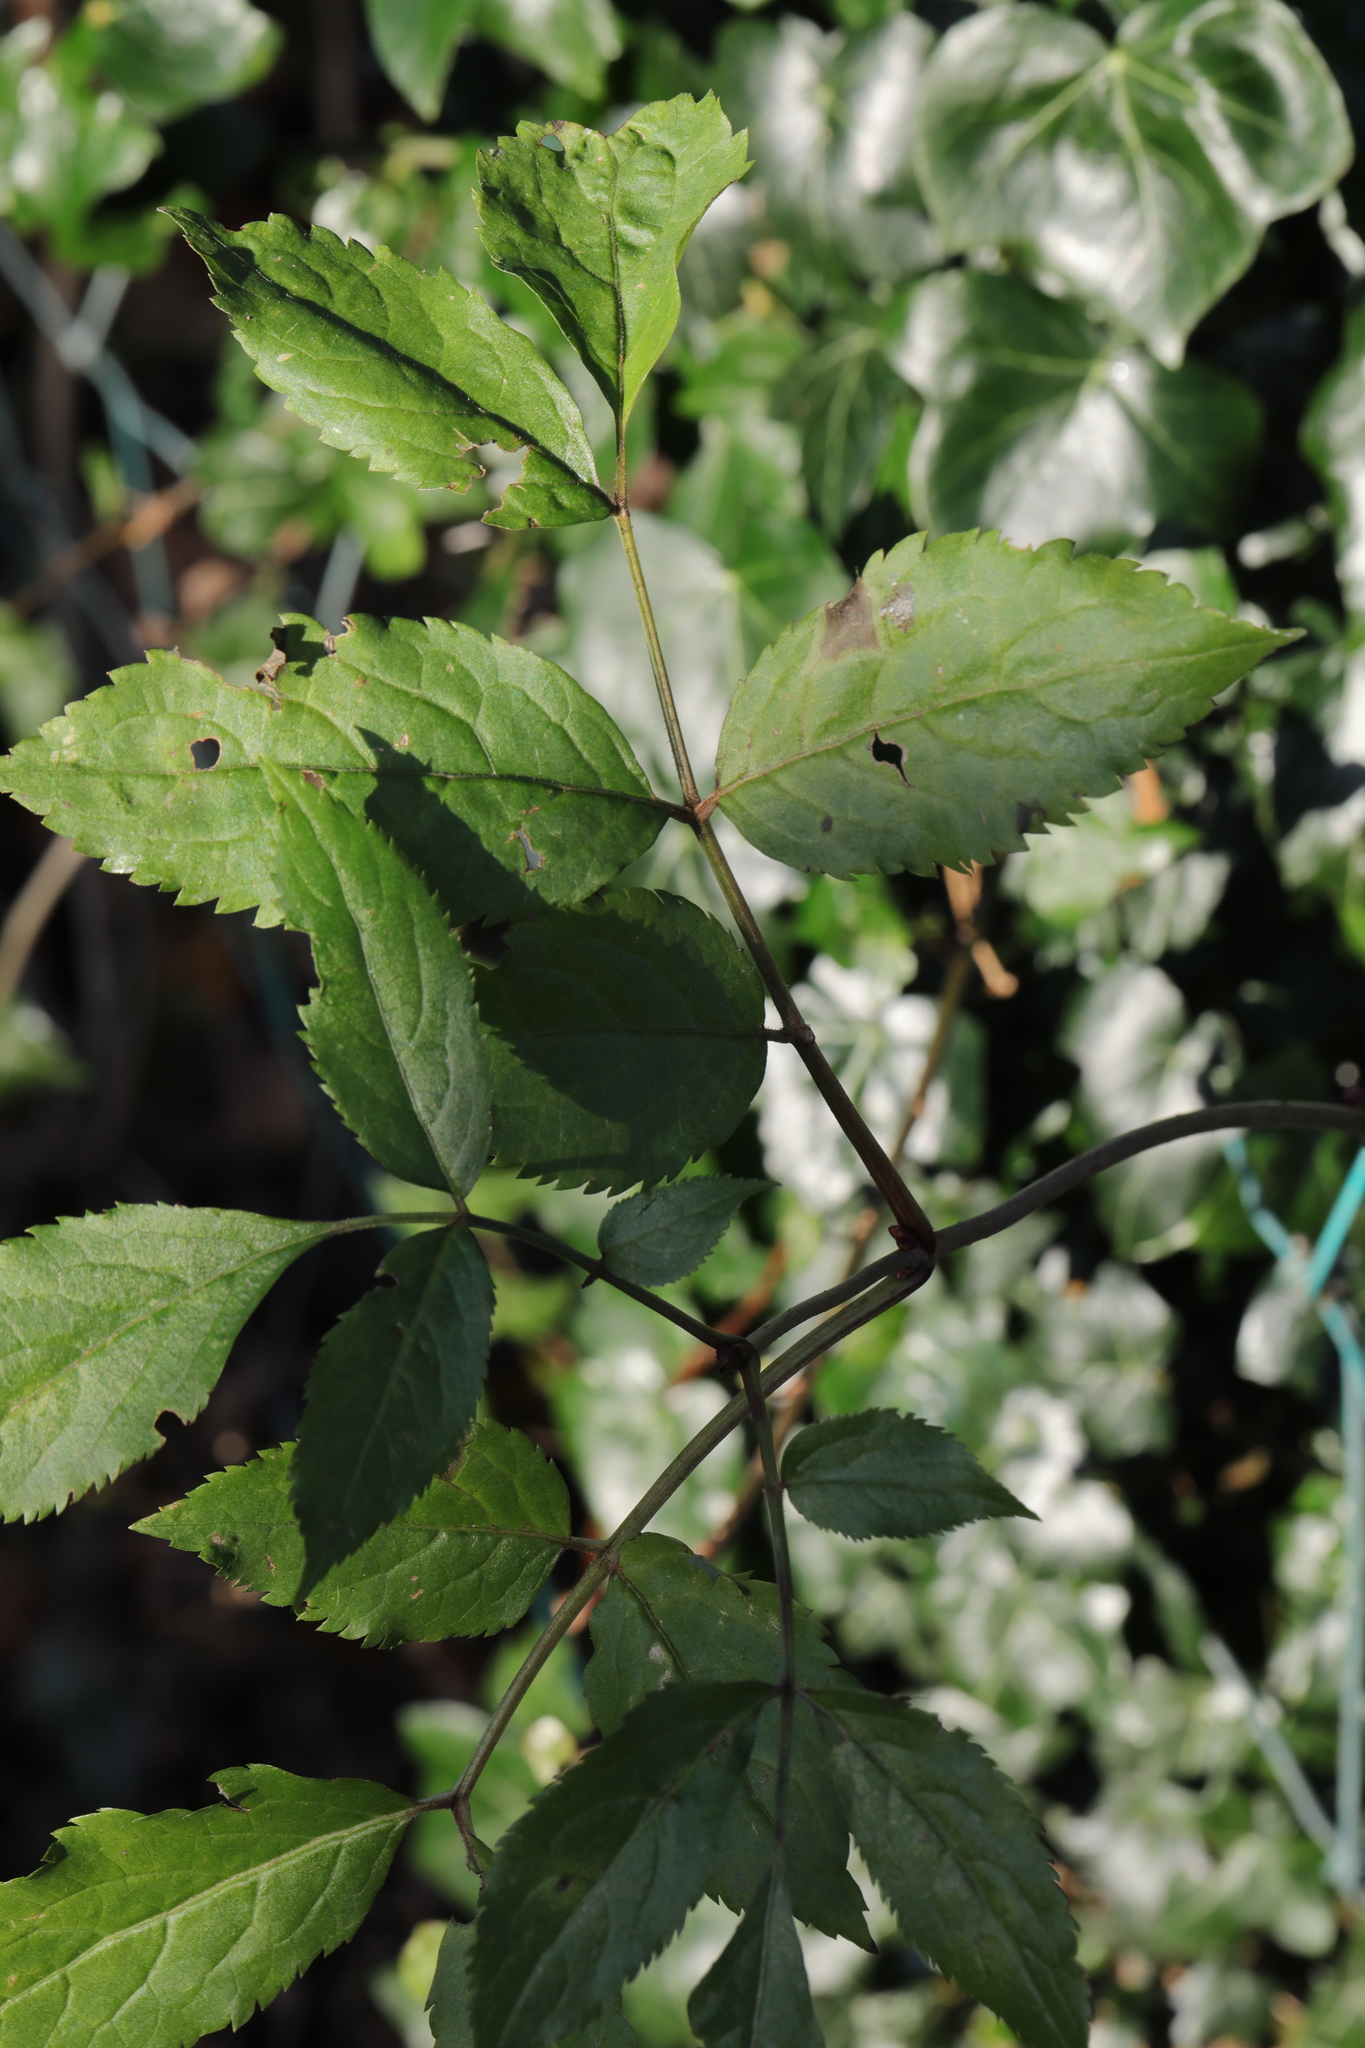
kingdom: Plantae
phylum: Tracheophyta
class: Magnoliopsida
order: Dipsacales
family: Viburnaceae
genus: Sambucus
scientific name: Sambucus nigra
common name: Elder
